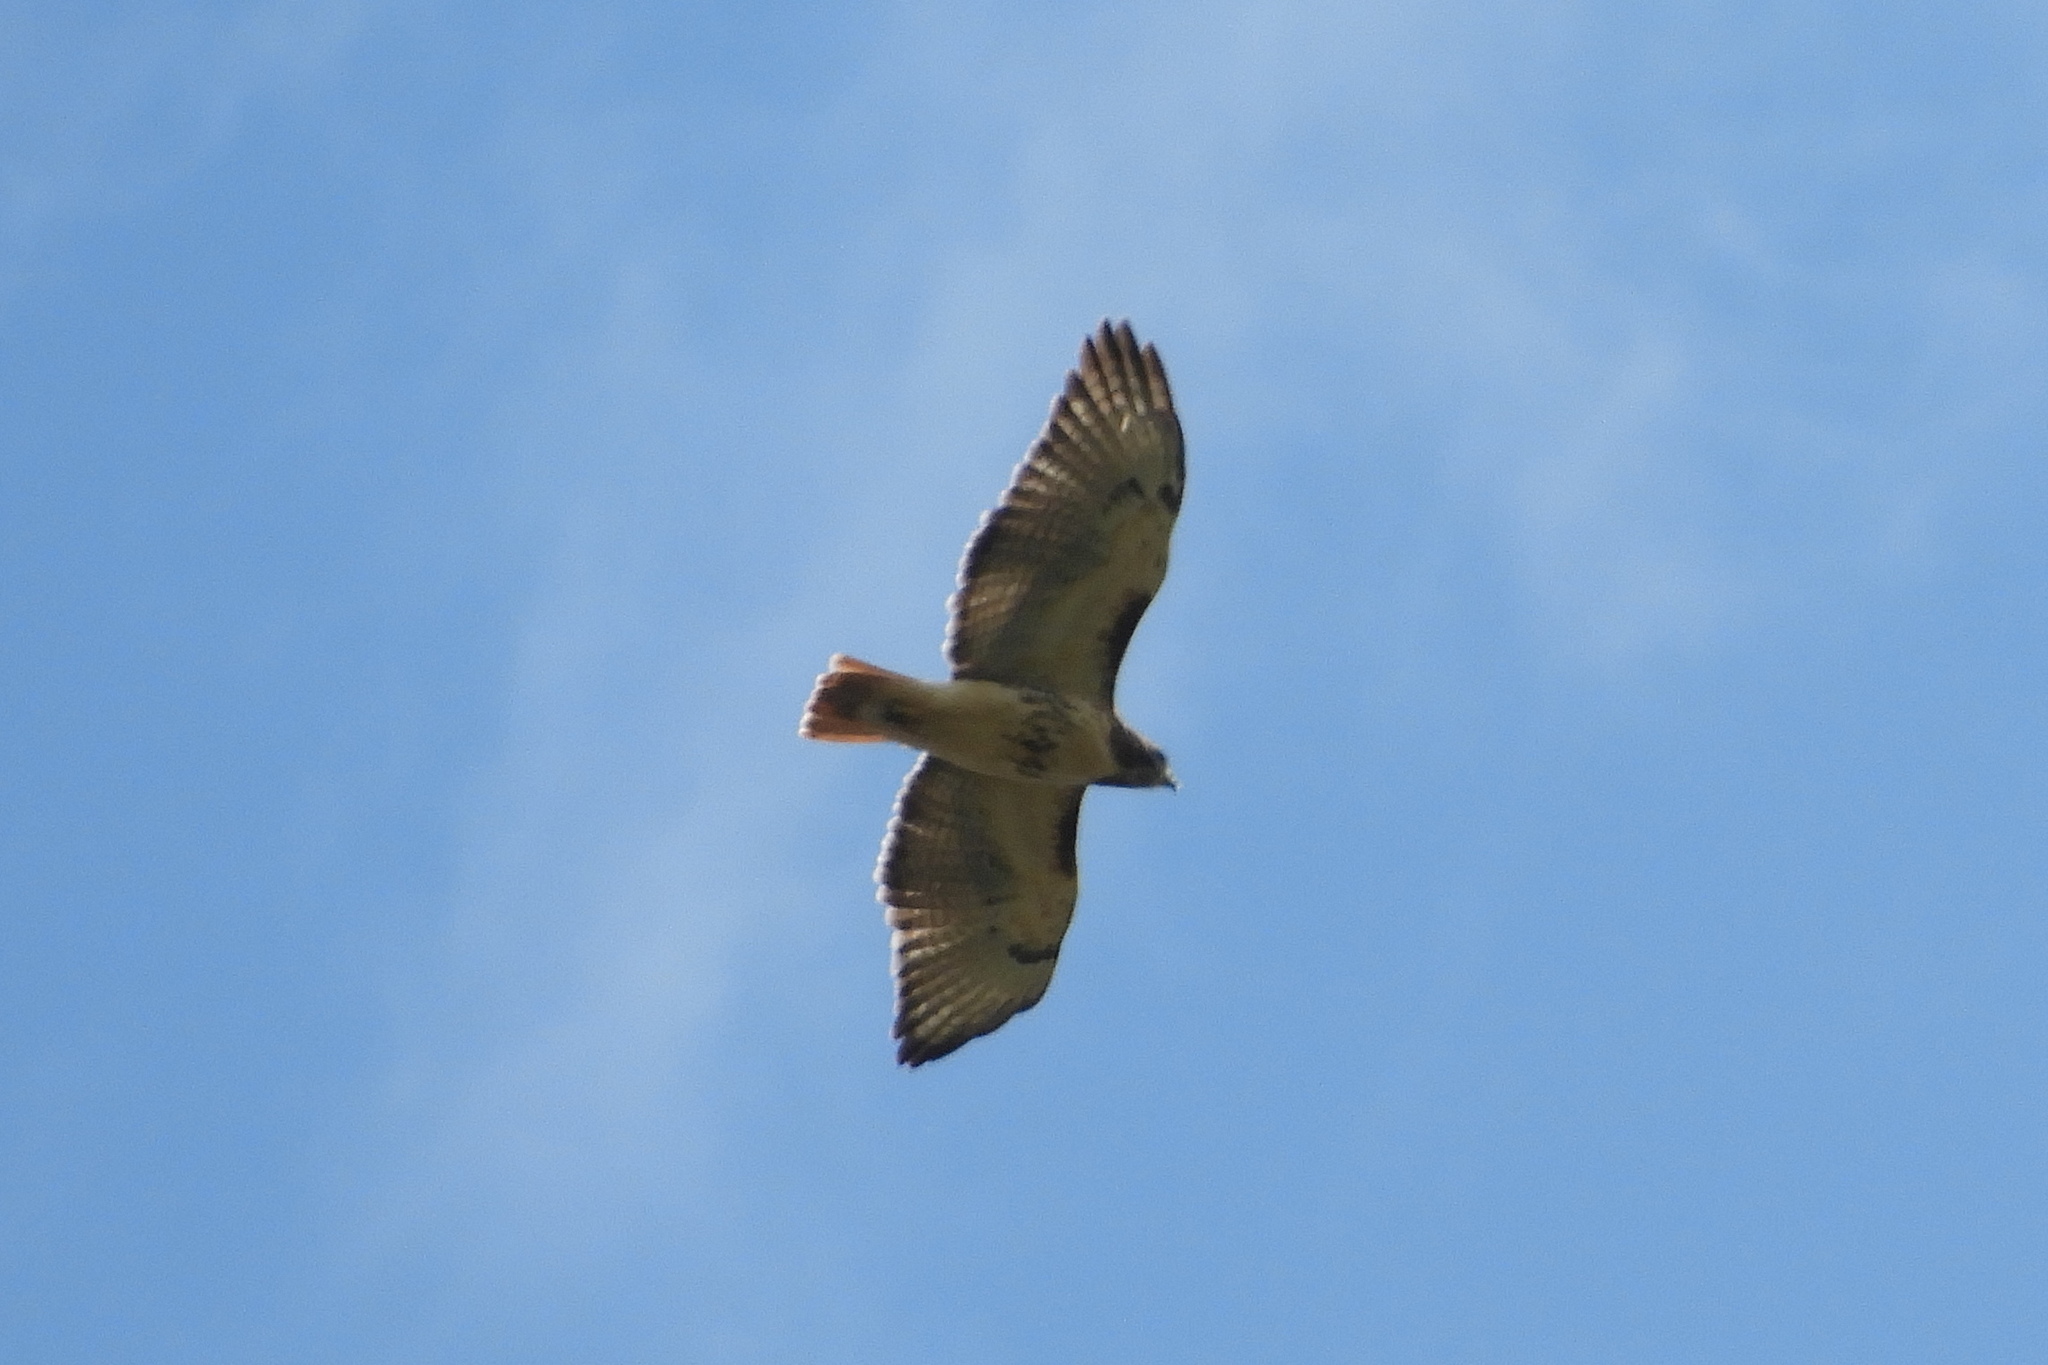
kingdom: Animalia
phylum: Chordata
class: Aves
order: Accipitriformes
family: Accipitridae
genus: Buteo
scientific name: Buteo jamaicensis
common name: Red-tailed hawk
